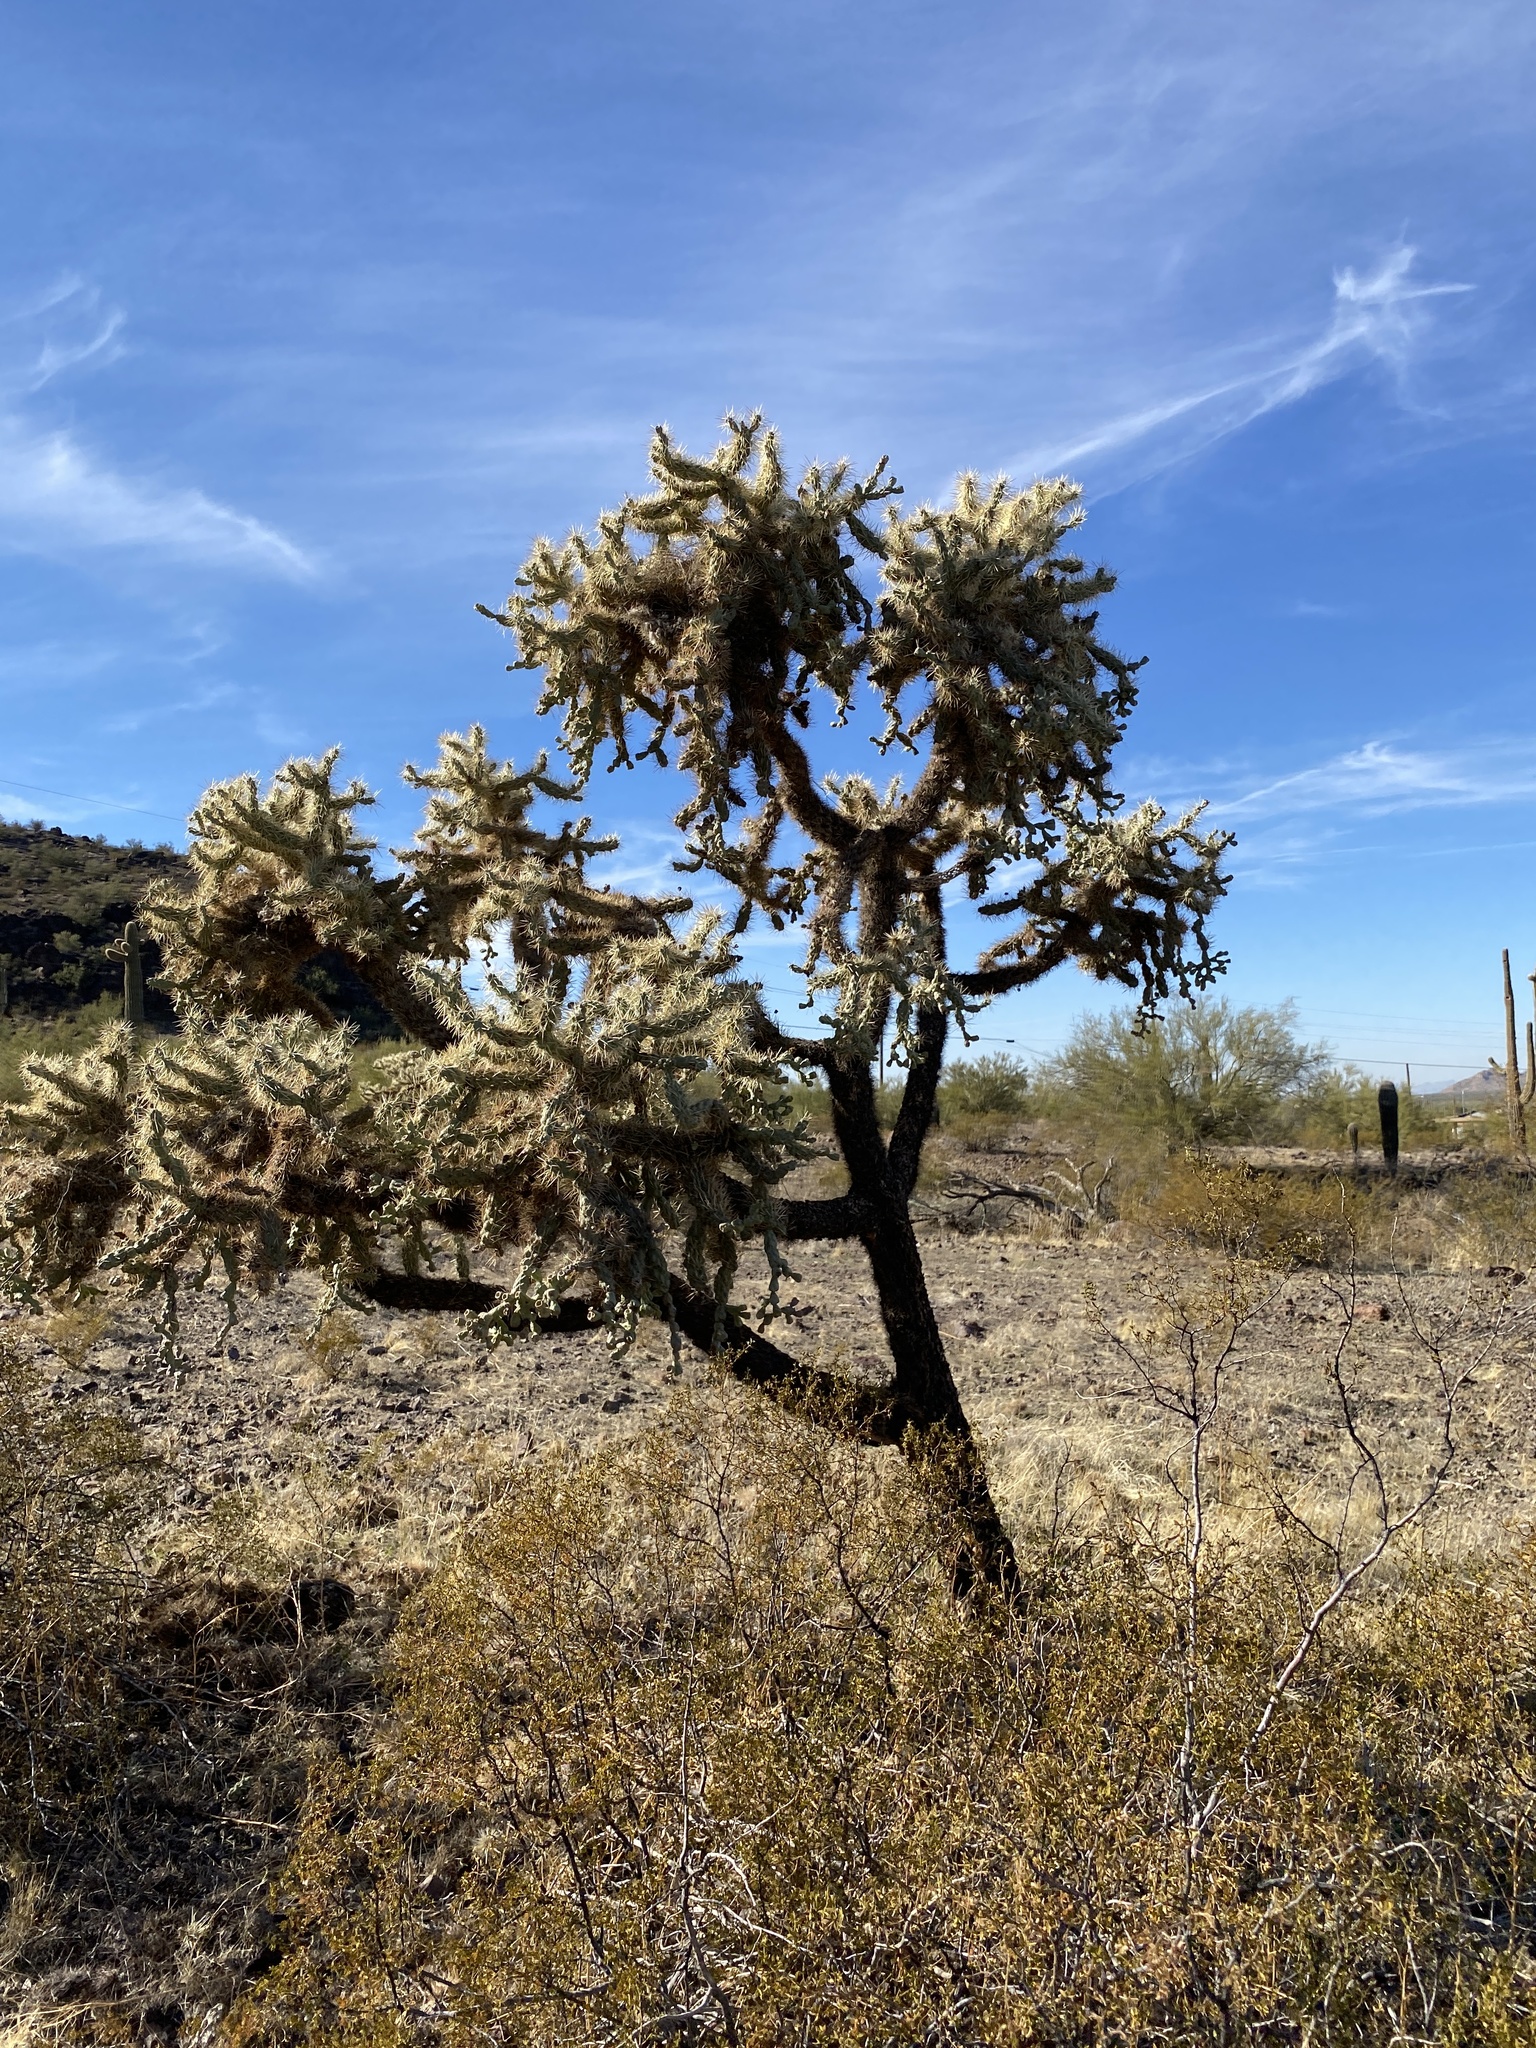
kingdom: Plantae
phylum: Tracheophyta
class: Magnoliopsida
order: Caryophyllales
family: Cactaceae
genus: Cylindropuntia
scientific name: Cylindropuntia fulgida
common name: Jumping cholla
